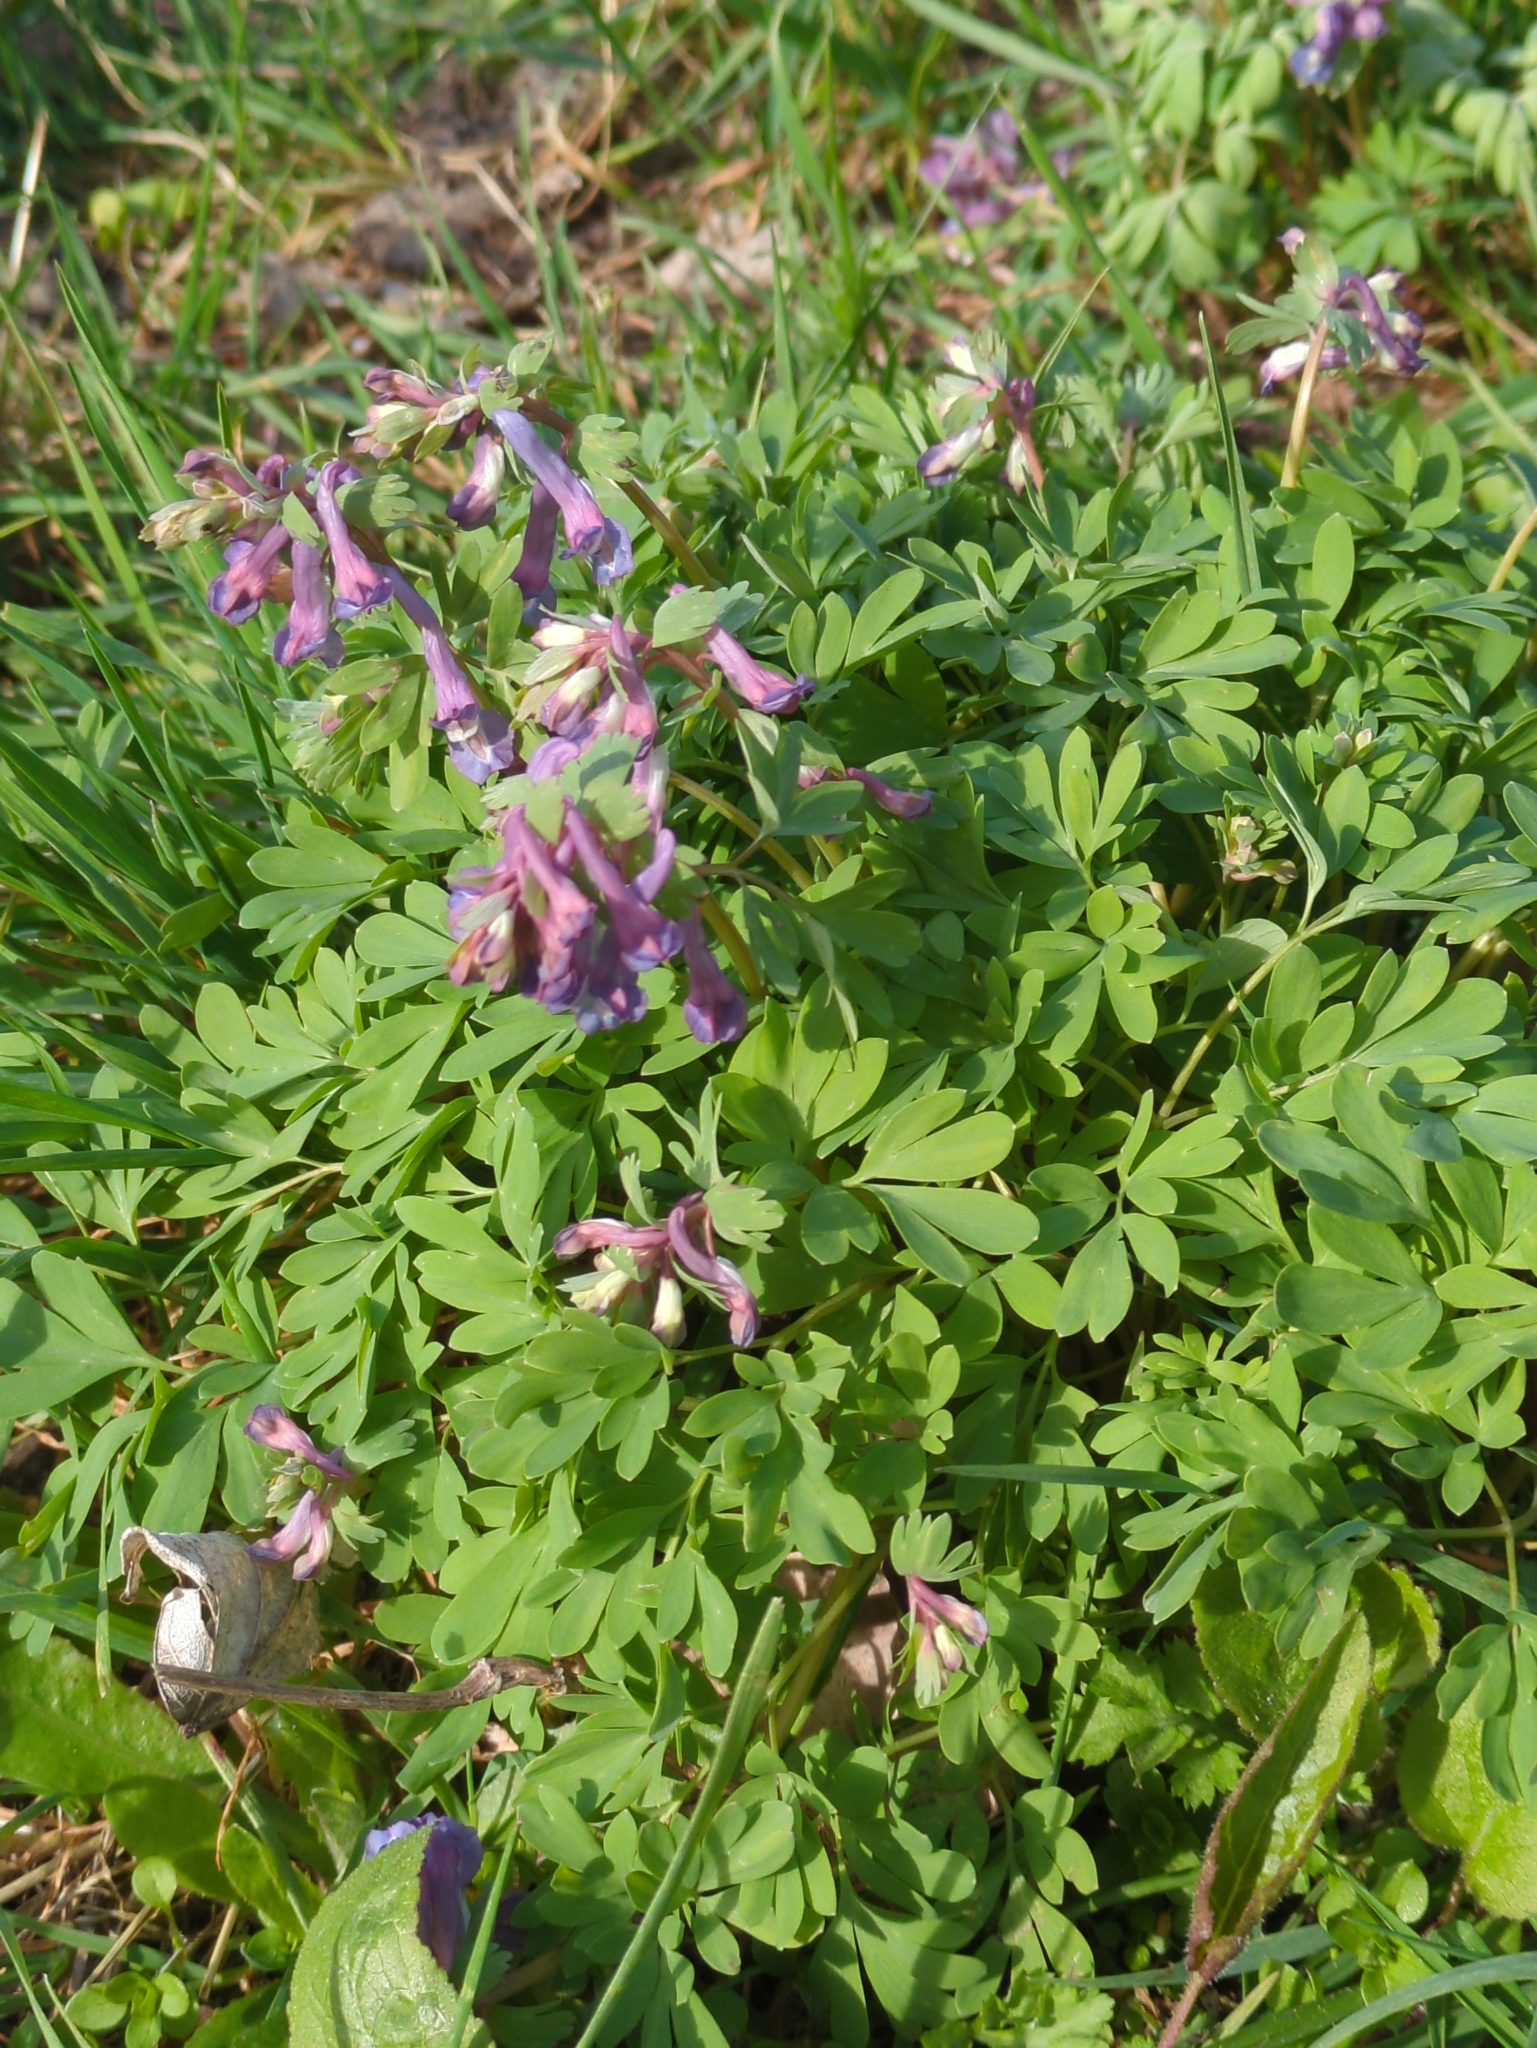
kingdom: Plantae
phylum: Tracheophyta
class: Magnoliopsida
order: Ranunculales
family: Papaveraceae
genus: Corydalis
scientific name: Corydalis solida
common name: Bird-in-a-bush
